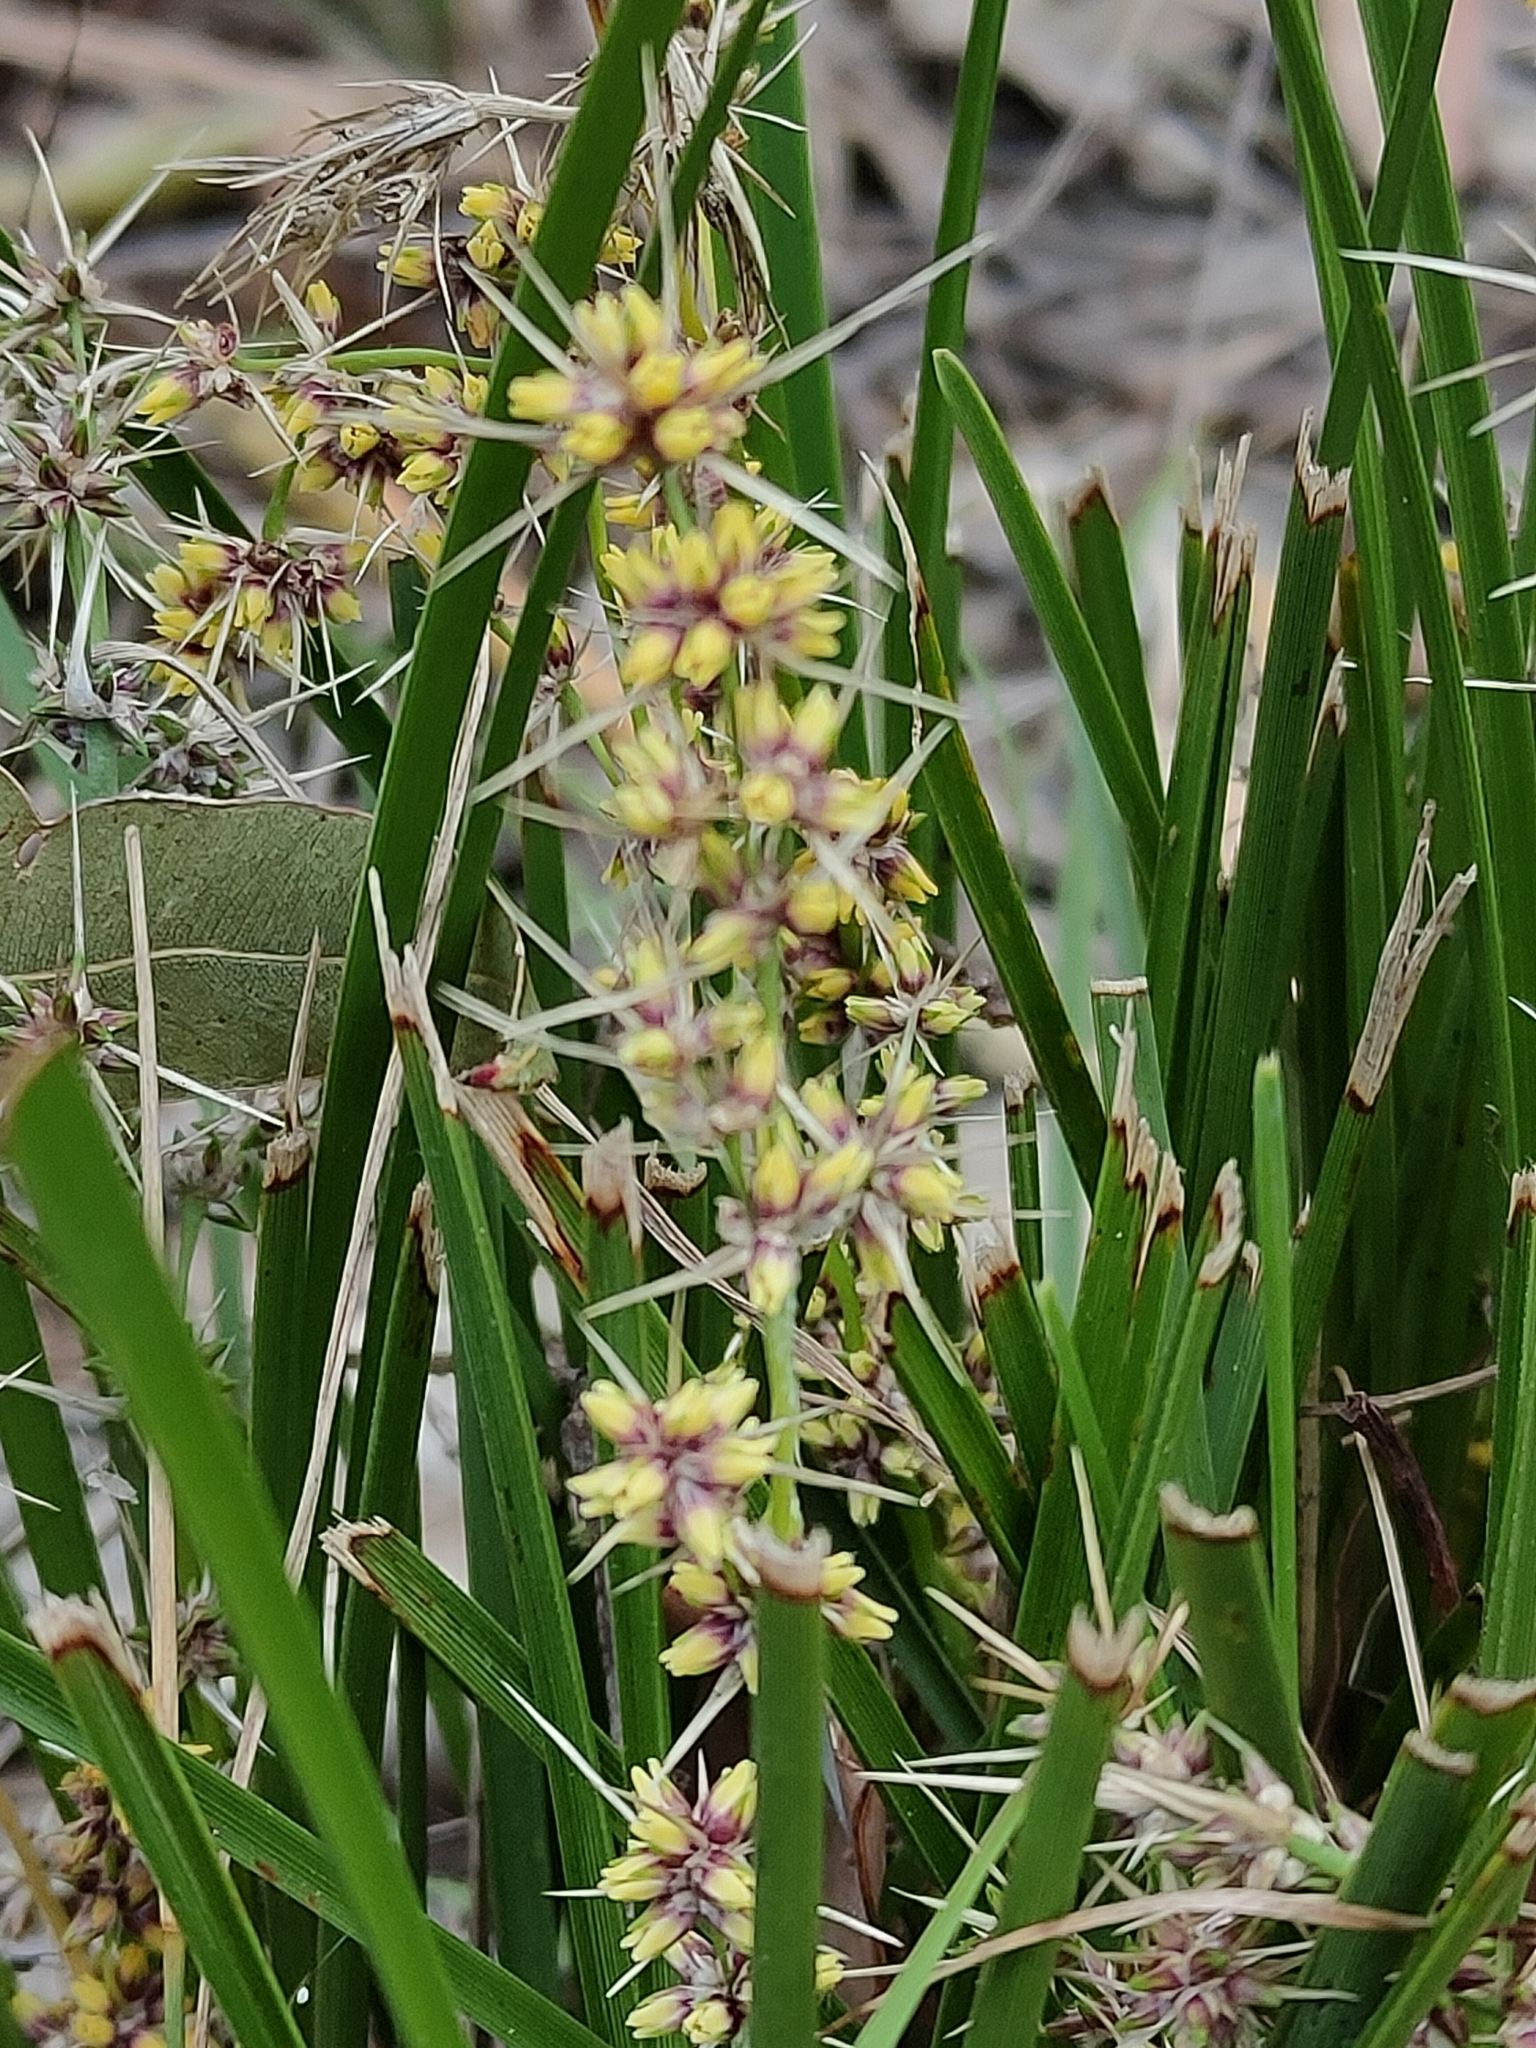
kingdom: Plantae
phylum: Tracheophyta
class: Liliopsida
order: Asparagales
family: Asparagaceae
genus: Lomandra
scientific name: Lomandra confertifolia
